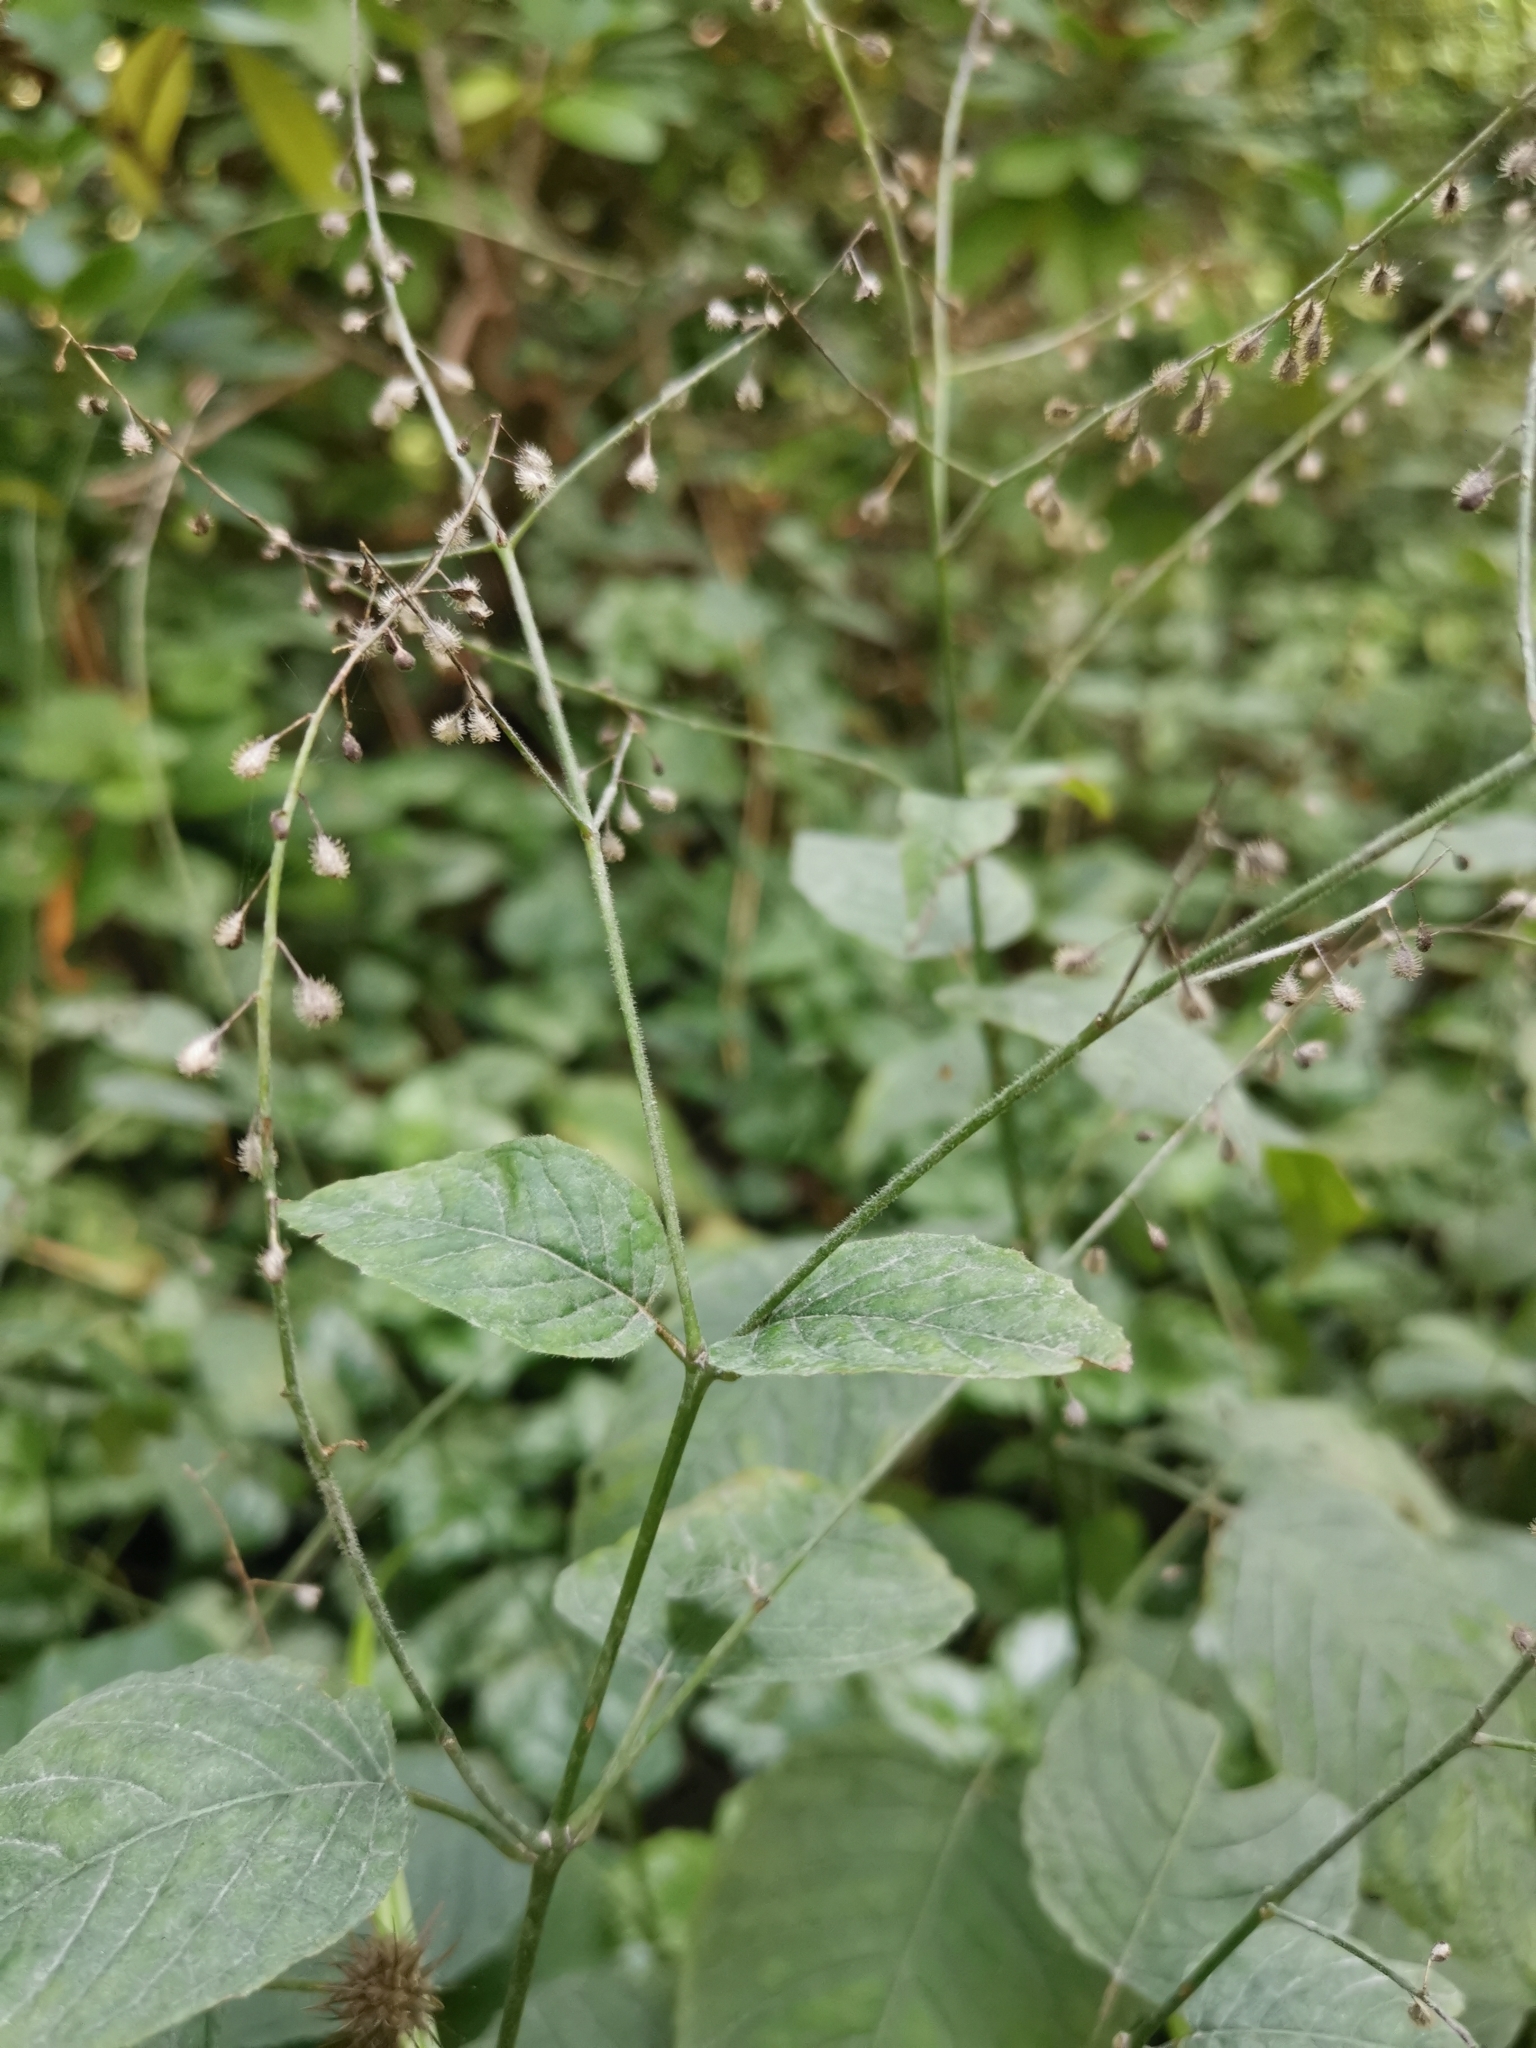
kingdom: Plantae
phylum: Tracheophyta
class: Magnoliopsida
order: Myrtales
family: Onagraceae
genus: Circaea
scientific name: Circaea lutetiana
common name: Enchanter's-nightshade
